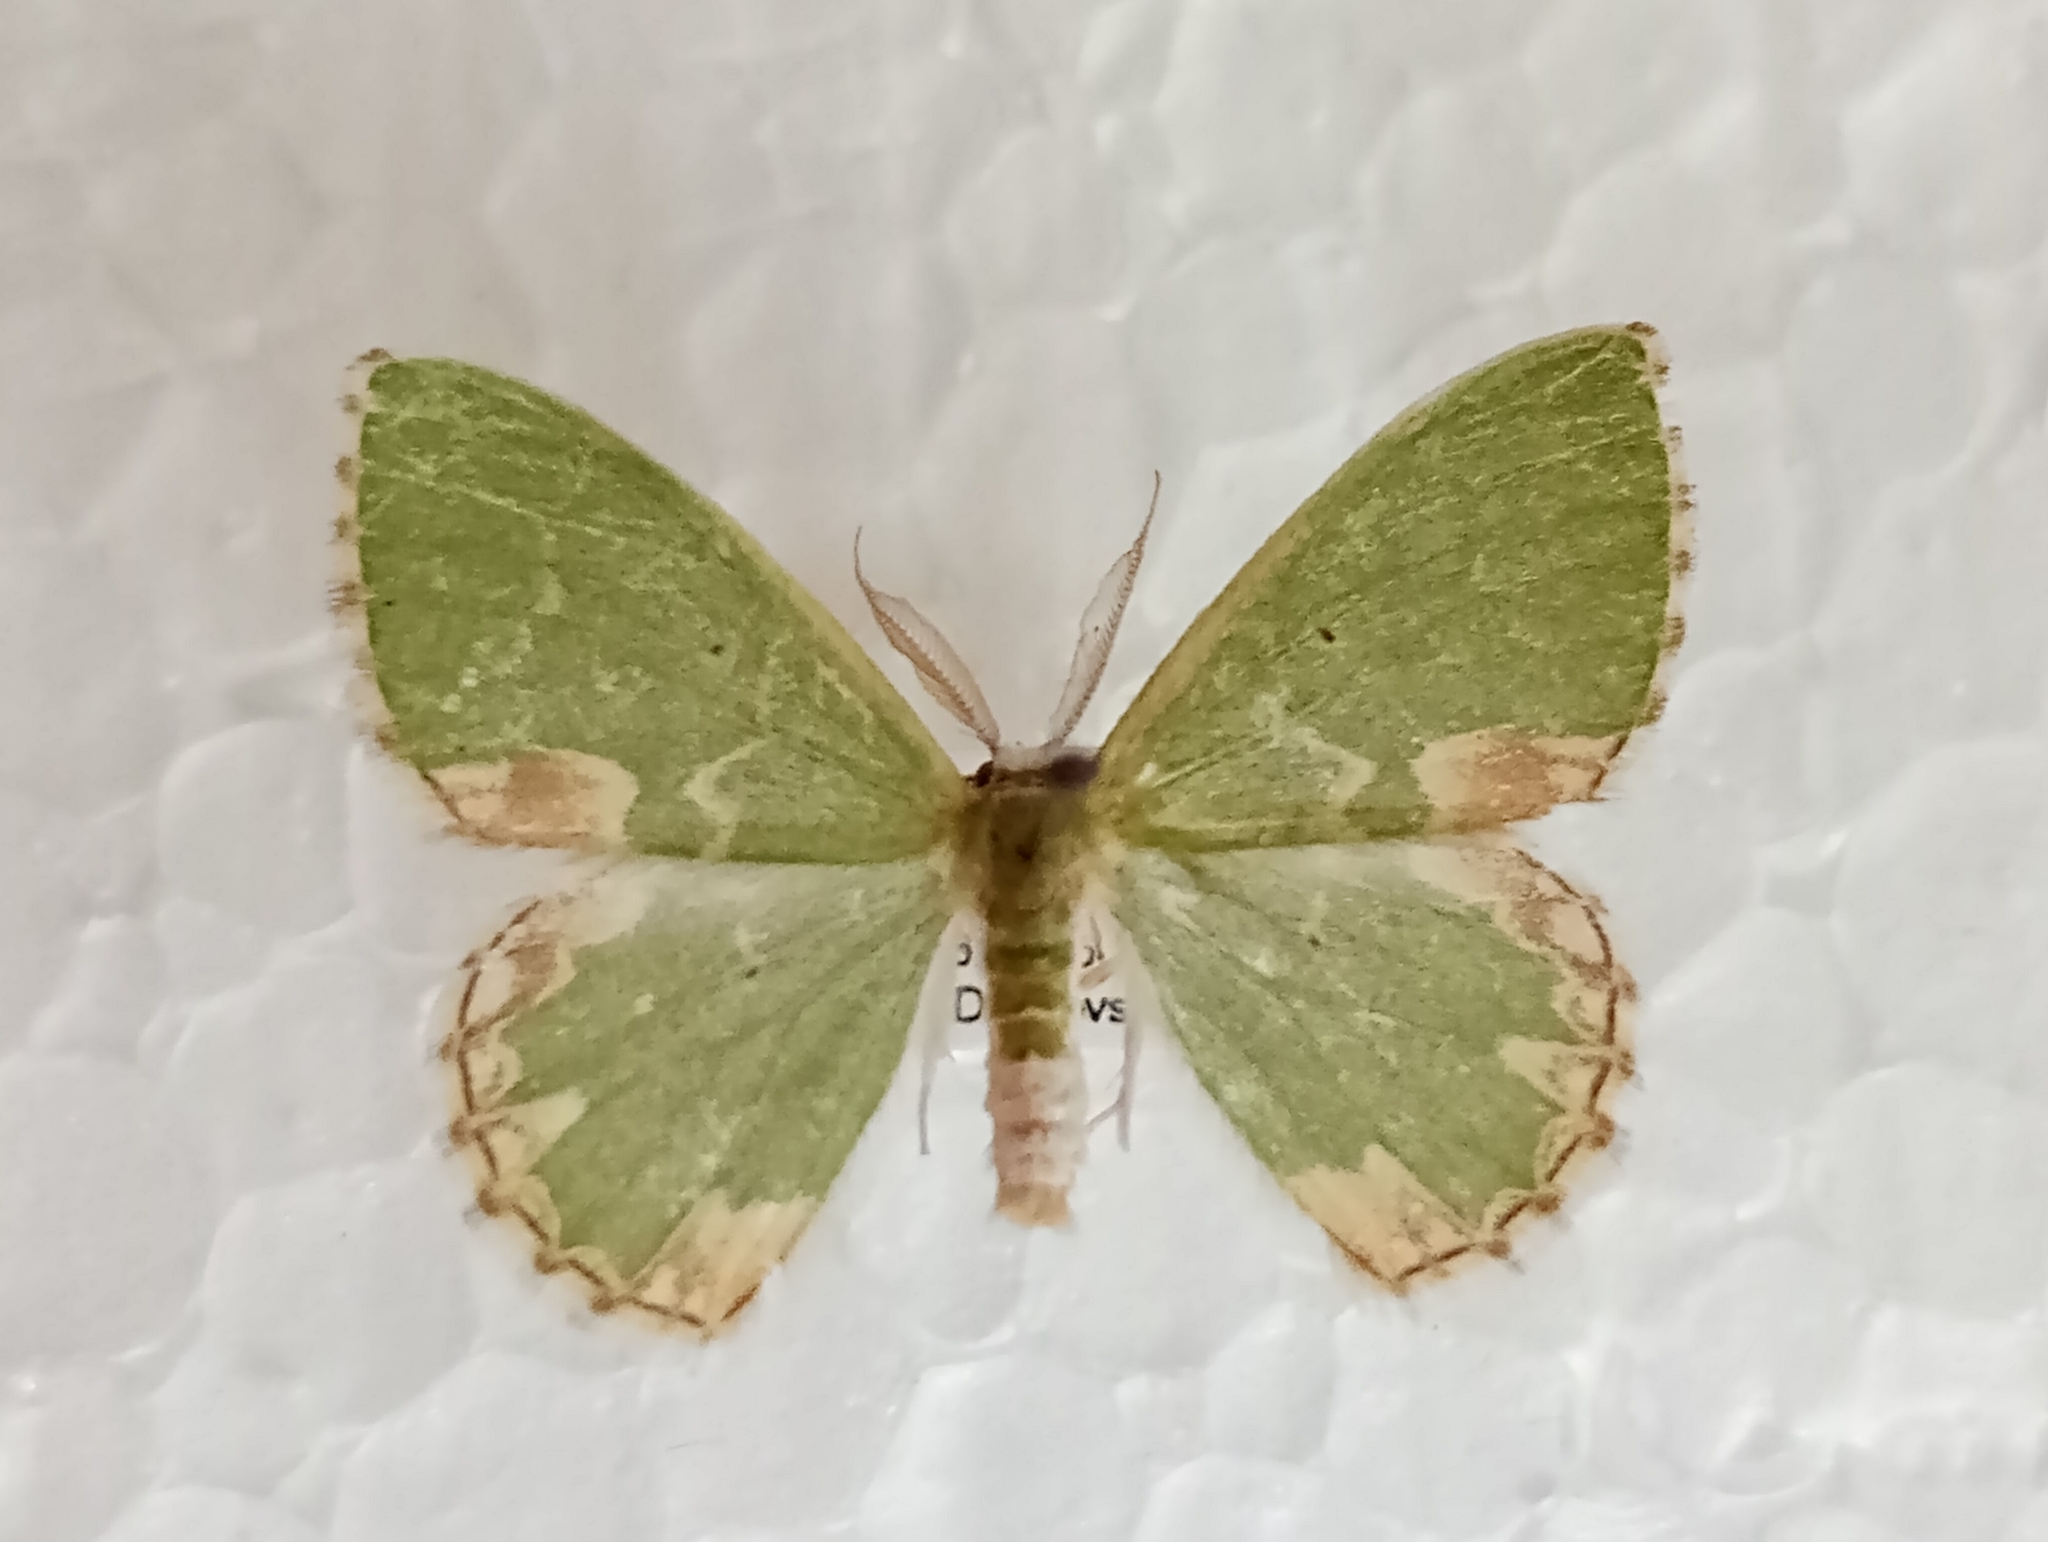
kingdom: Animalia
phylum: Arthropoda
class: Insecta
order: Lepidoptera
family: Geometridae
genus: Comibaena
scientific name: Comibaena bajularia
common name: Blotched emerald
